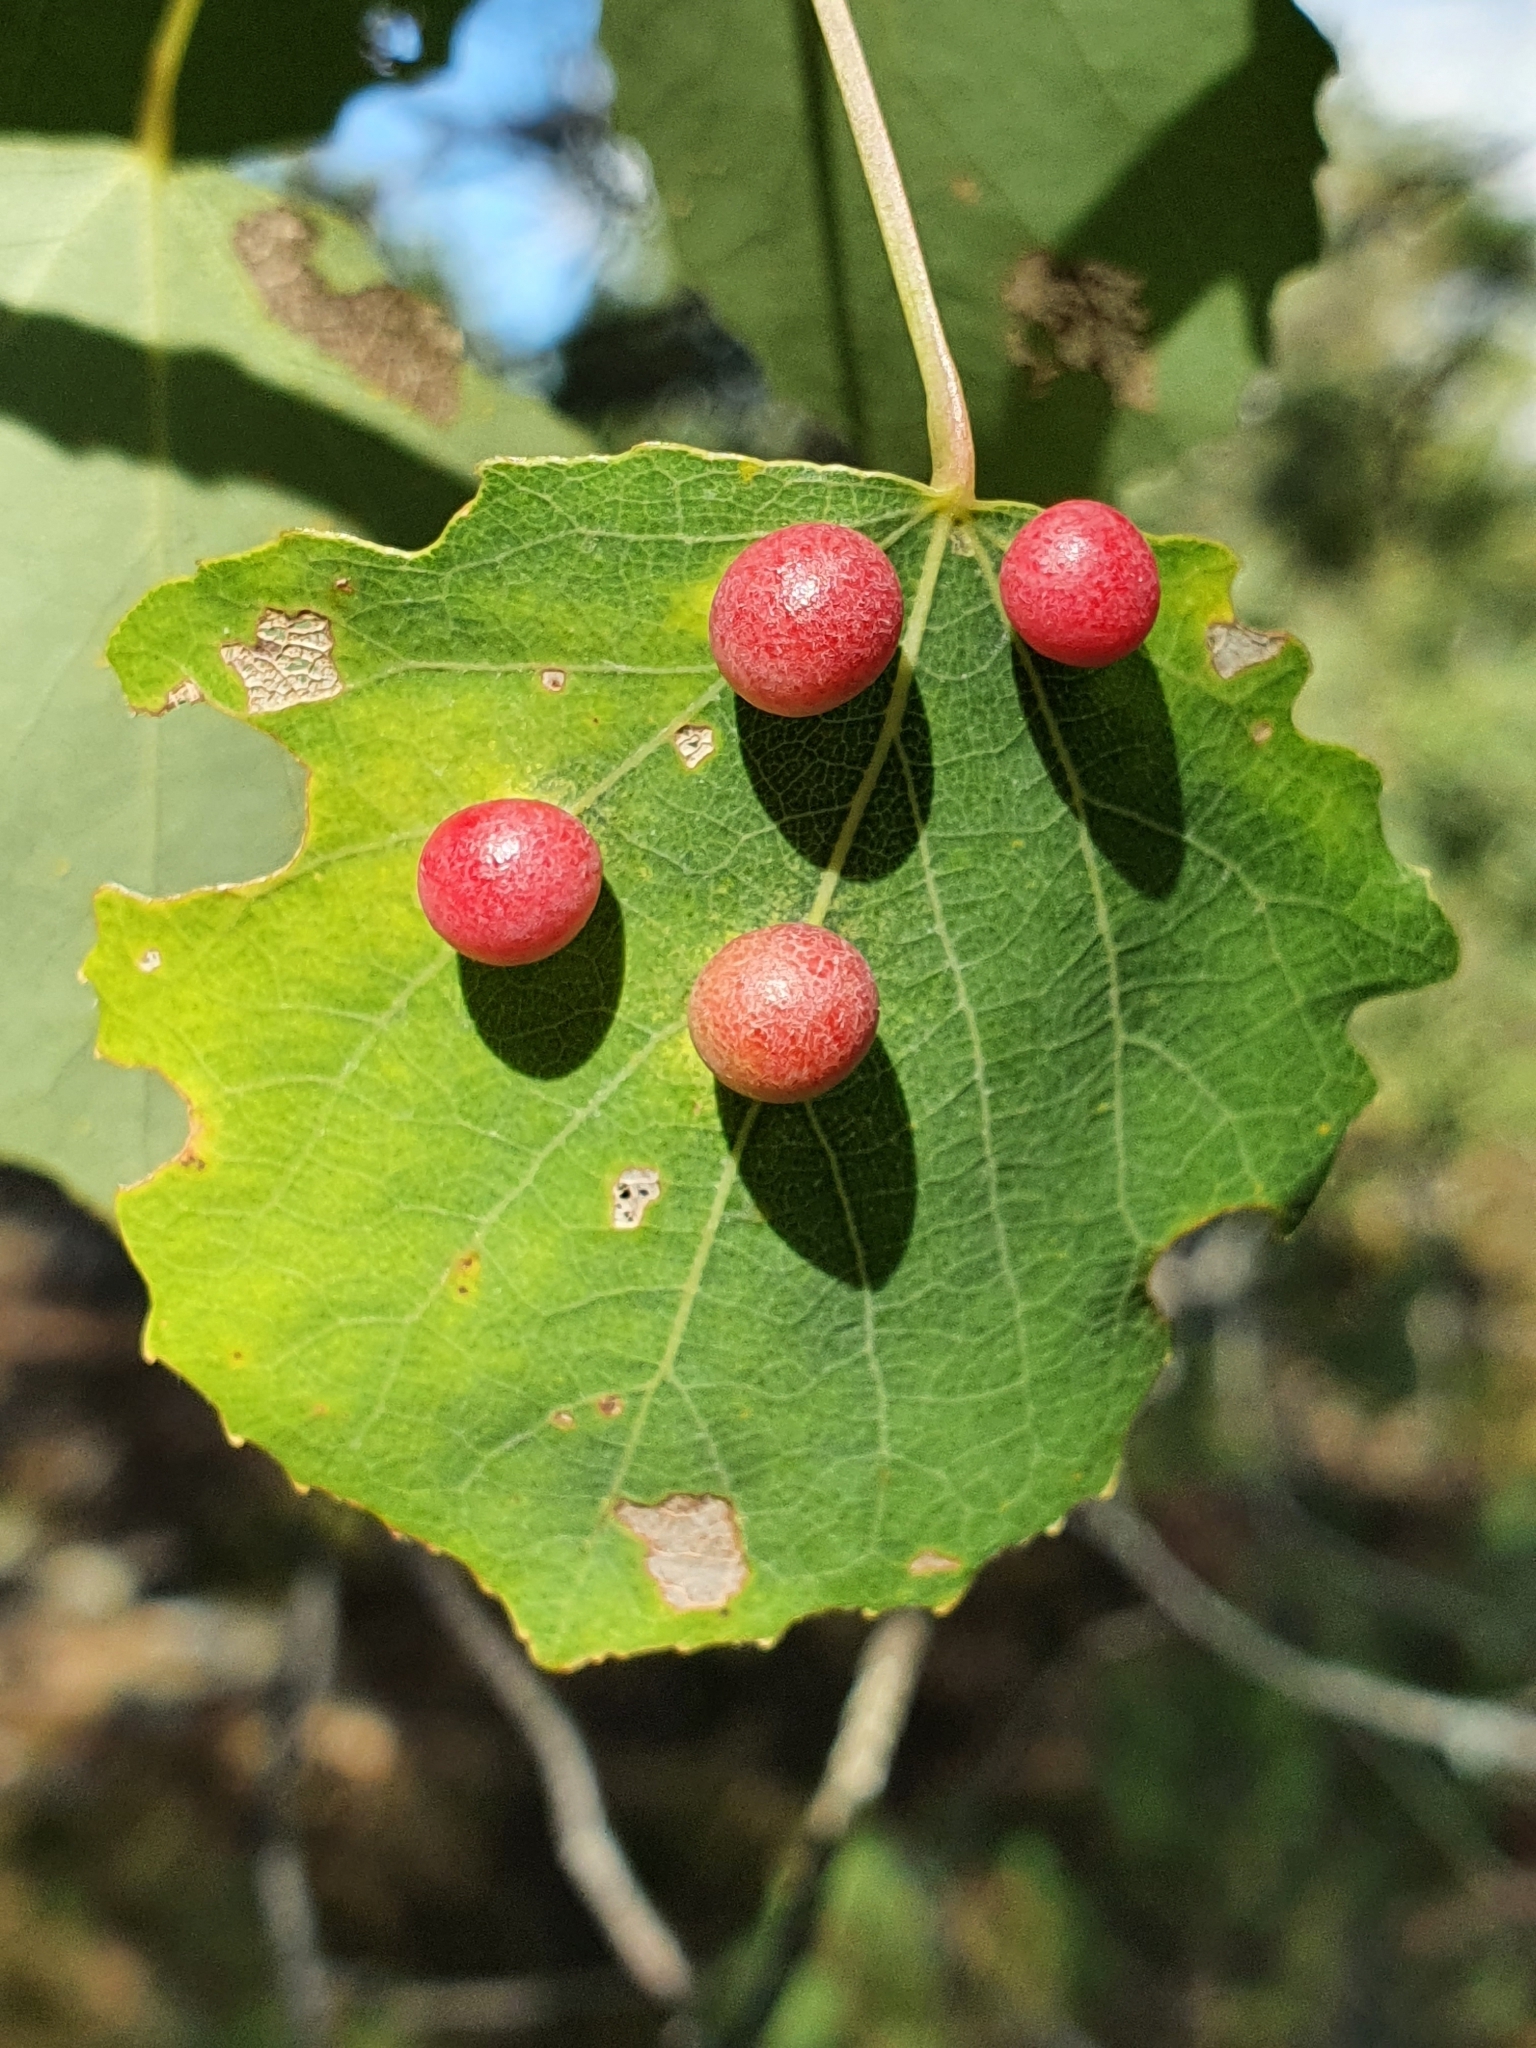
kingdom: Animalia
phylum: Arthropoda
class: Insecta
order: Diptera
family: Cecidomyiidae
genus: Harmandiola
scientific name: Harmandiola tremulae
